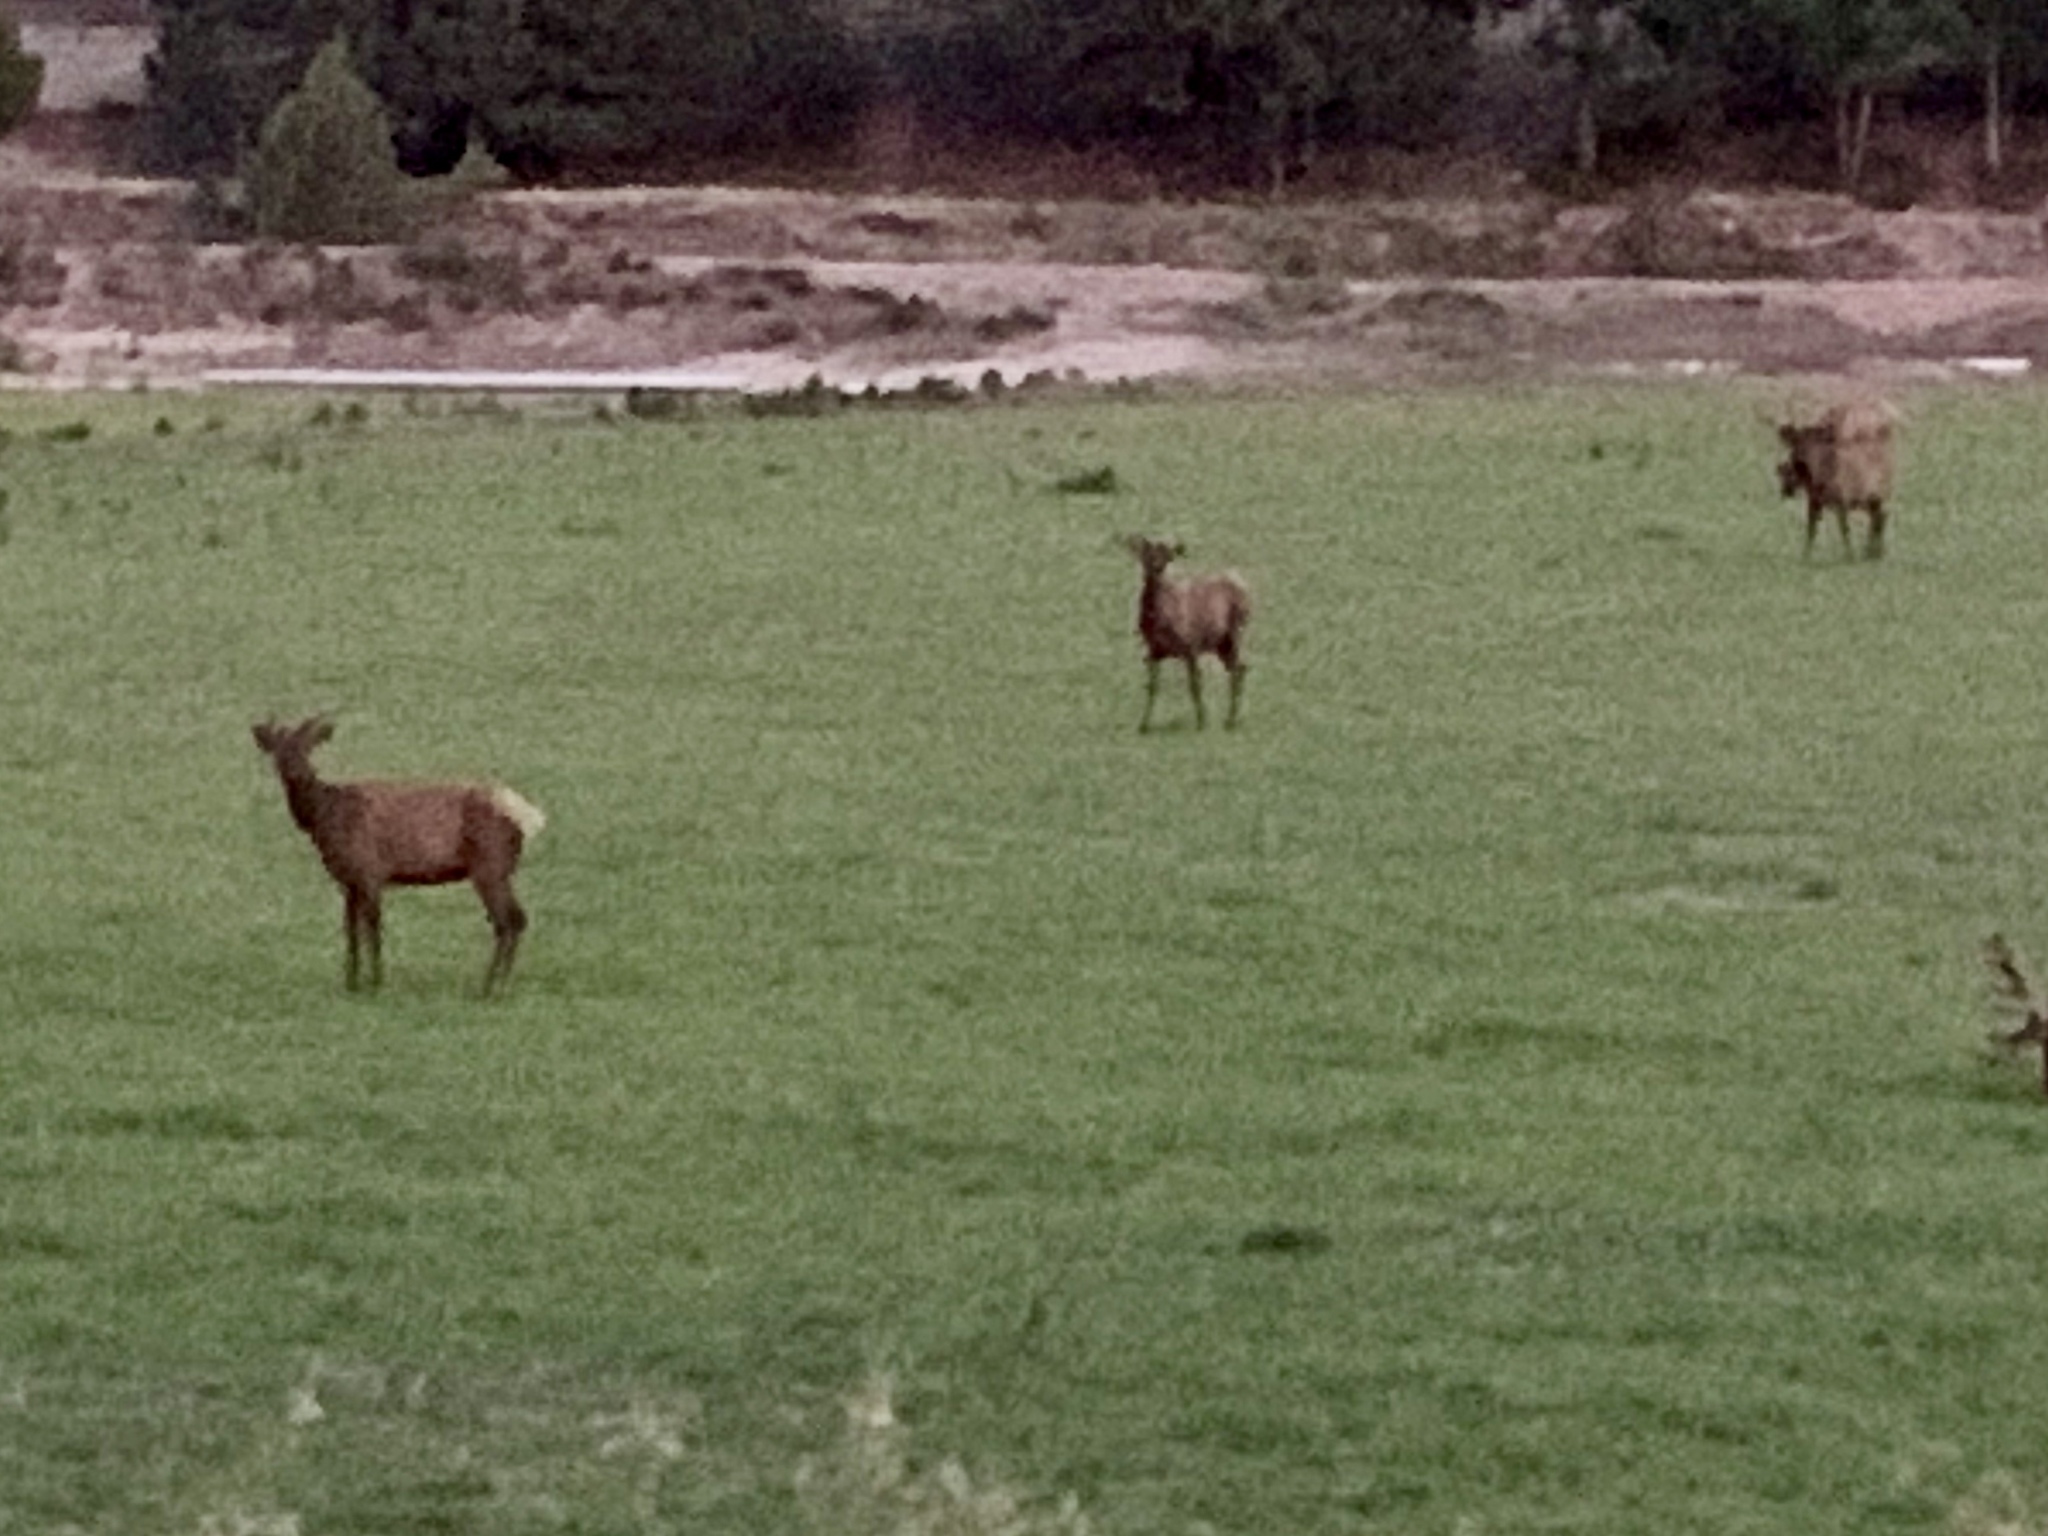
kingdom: Animalia
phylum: Chordata
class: Mammalia
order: Artiodactyla
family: Cervidae
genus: Cervus
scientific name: Cervus elaphus
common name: Red deer
